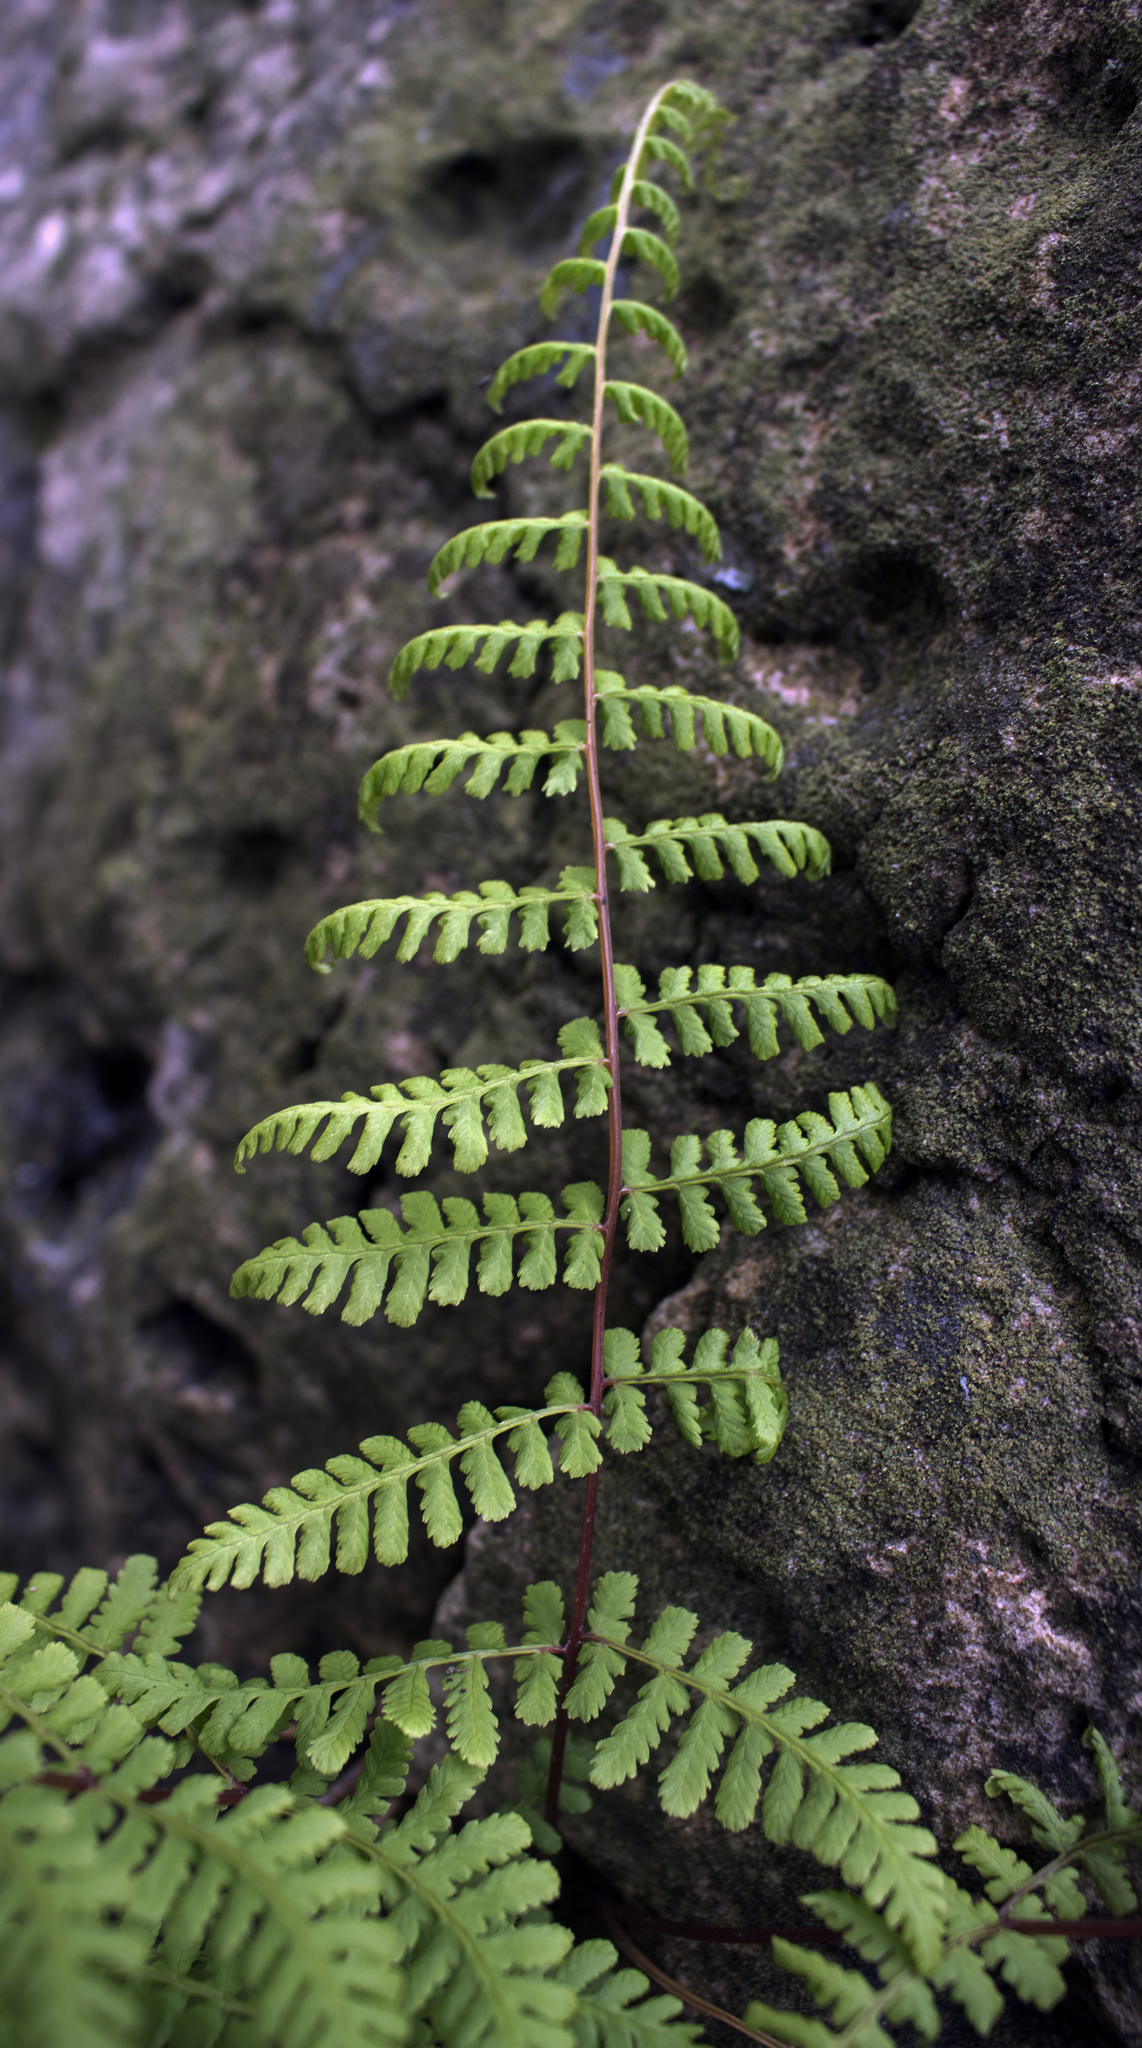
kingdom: Plantae
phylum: Tracheophyta
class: Polypodiopsida
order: Polypodiales
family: Cystopteridaceae
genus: Cystopteris
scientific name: Cystopteris bulbifera
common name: Bulblet bladder fern
